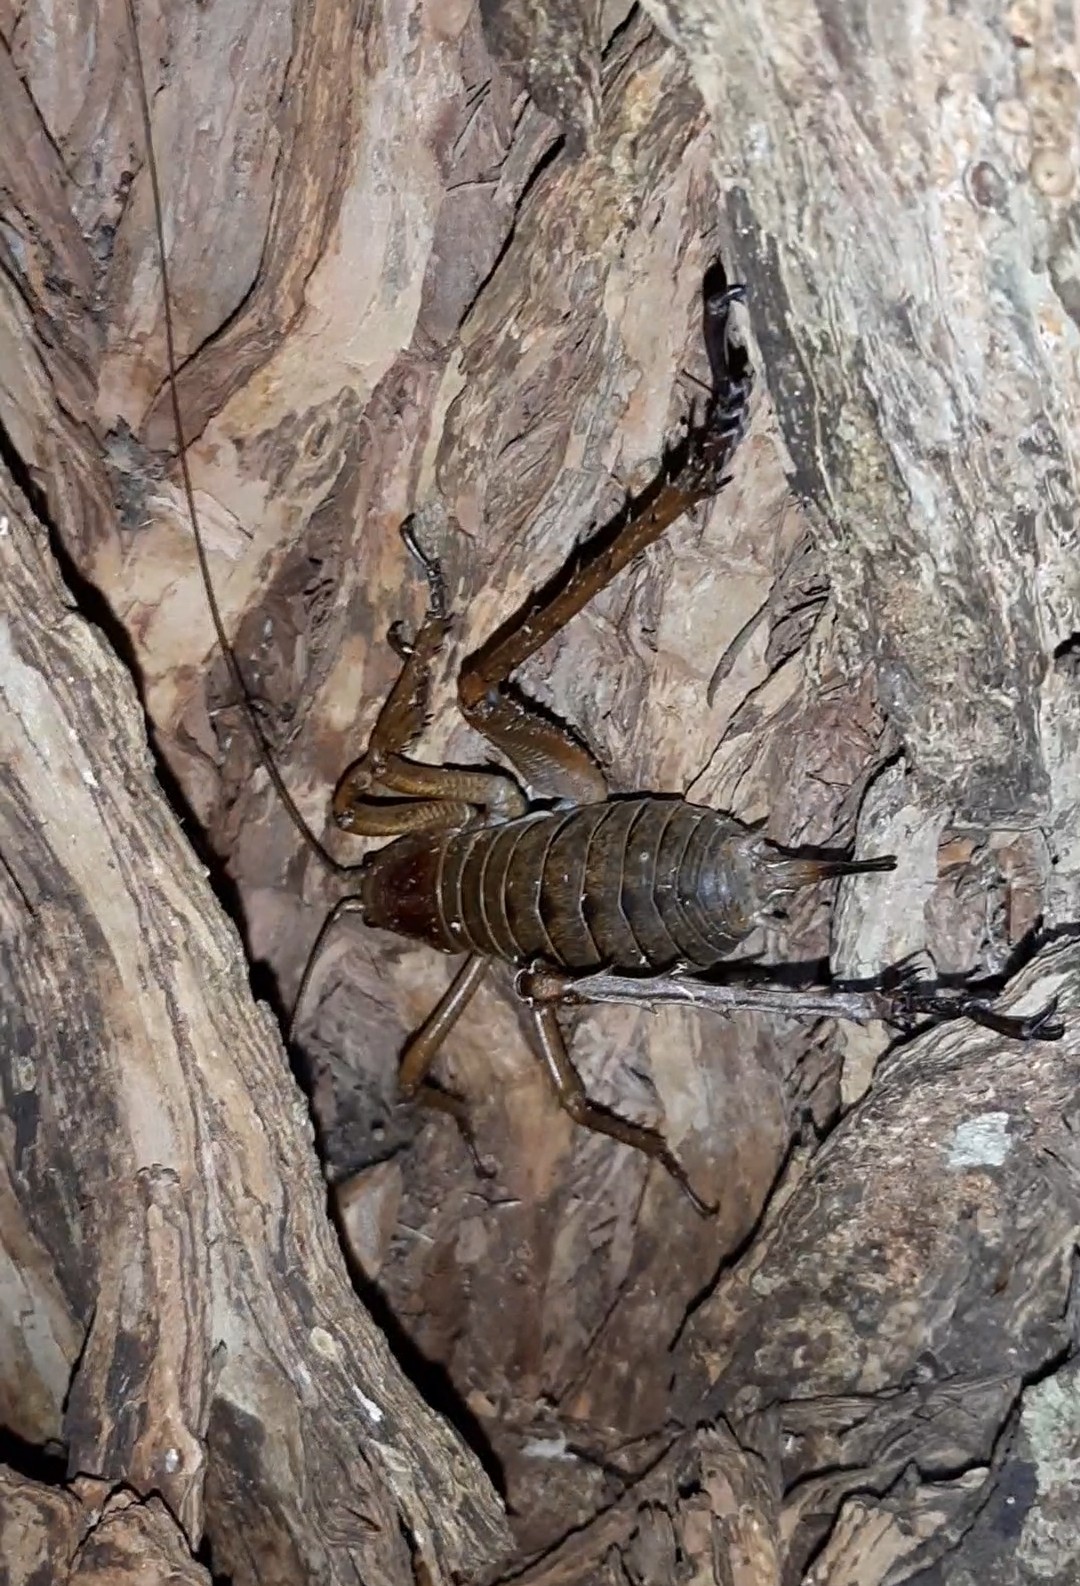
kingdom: Animalia
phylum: Arthropoda
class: Insecta
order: Orthoptera
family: Anostostomatidae
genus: Deinacrida
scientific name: Deinacrida heteracantha
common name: Wetapunga
